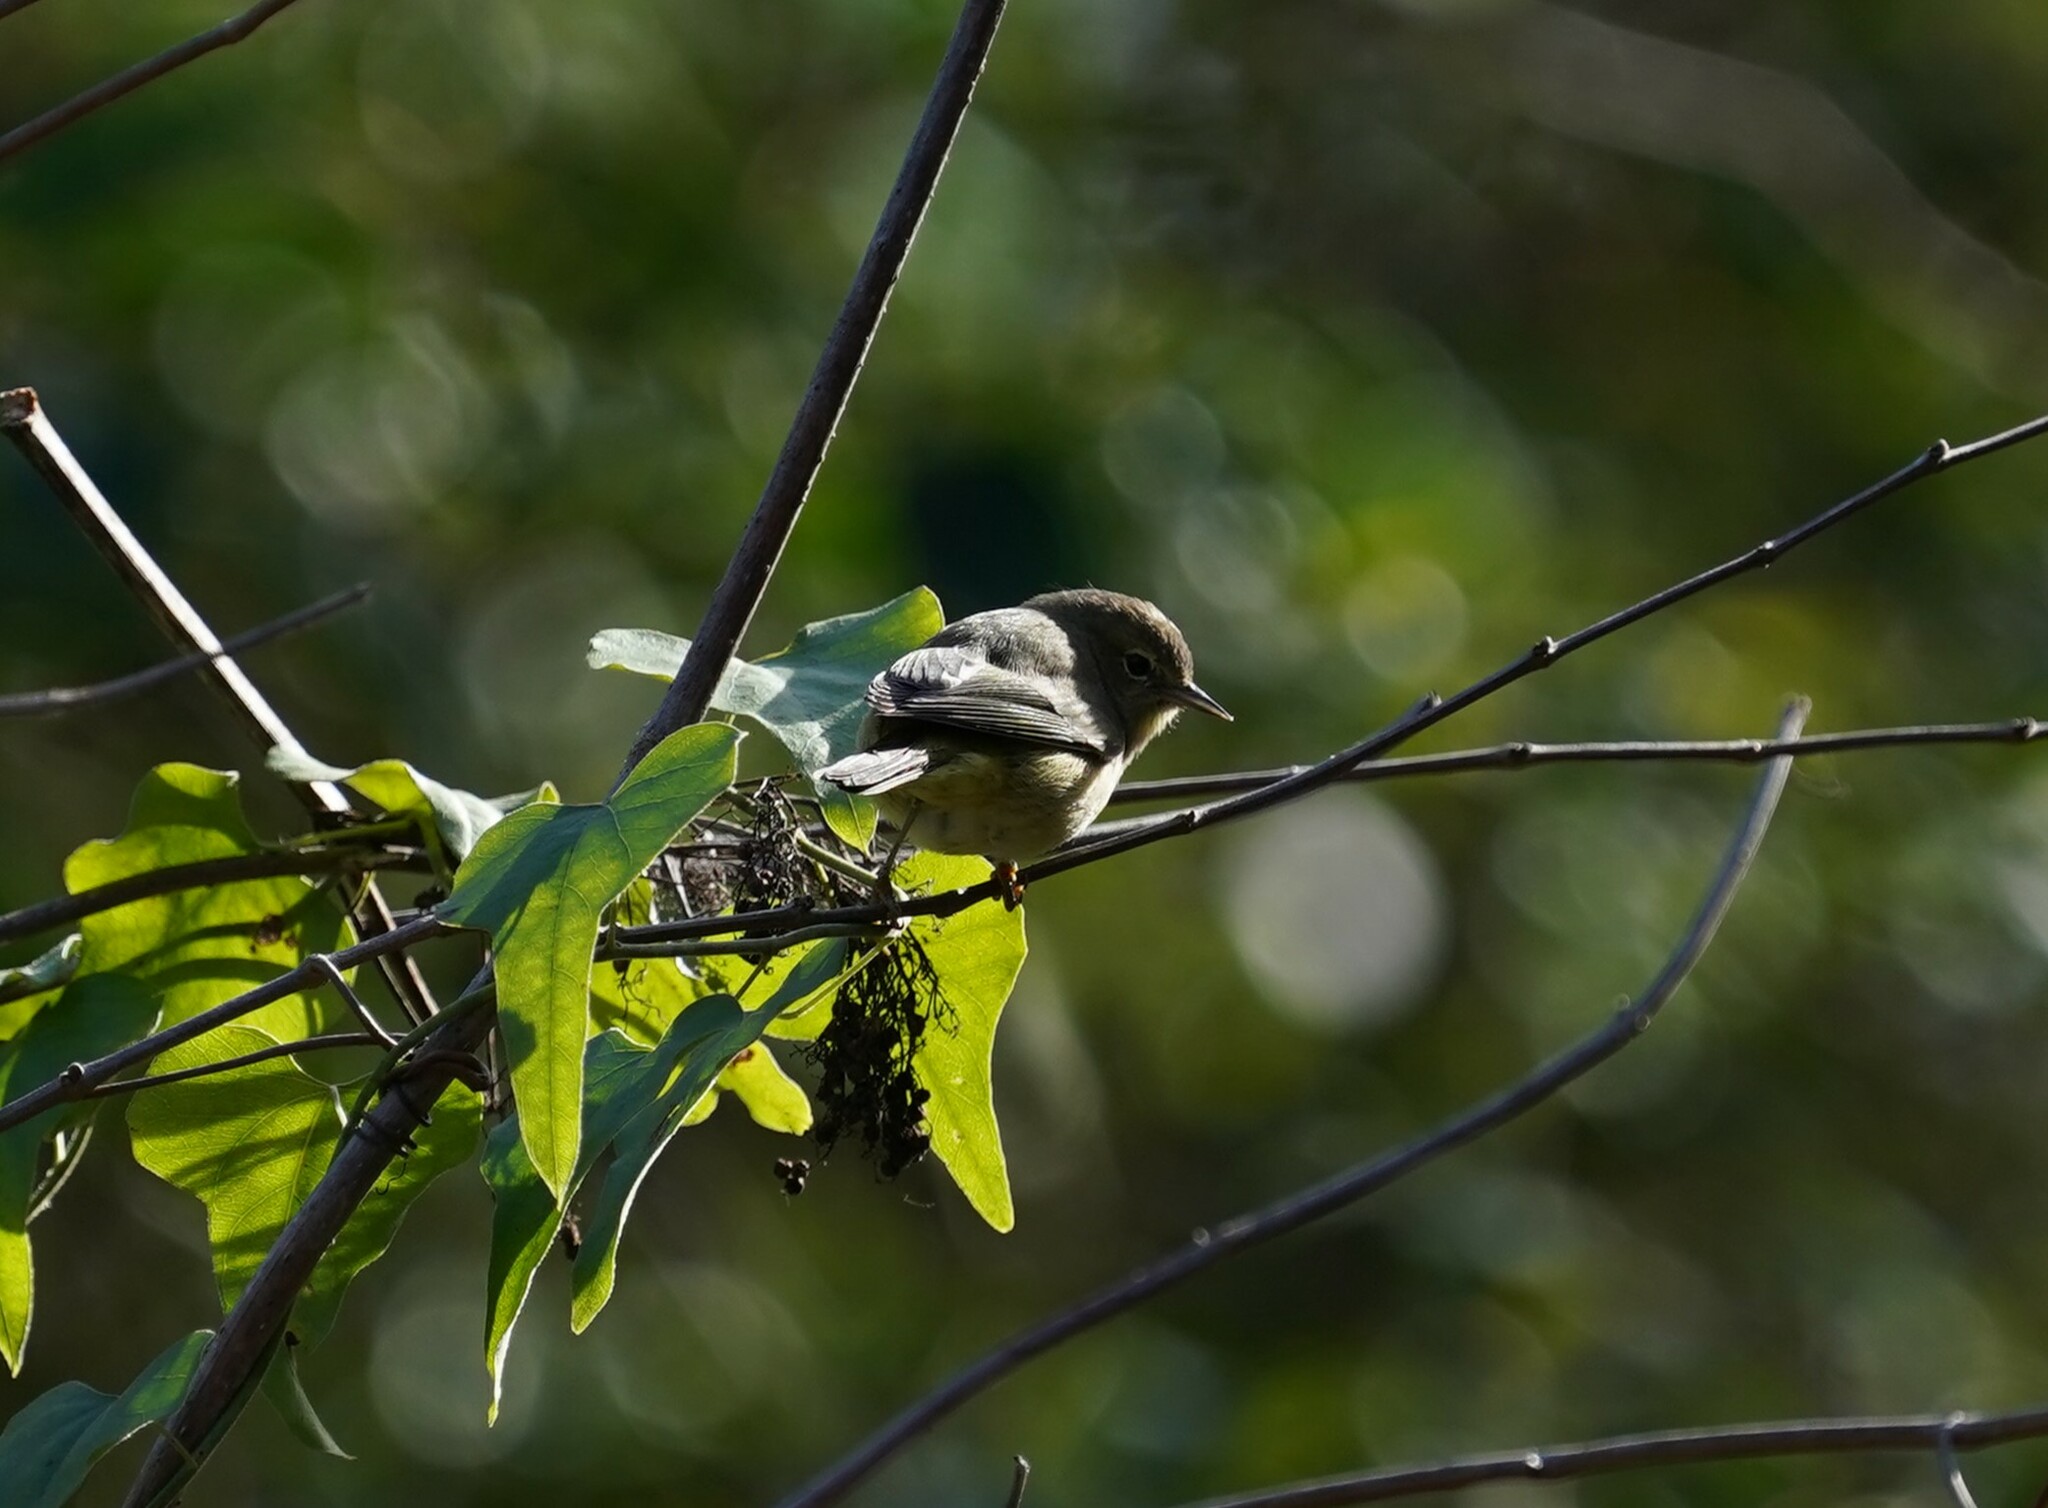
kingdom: Animalia
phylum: Chordata
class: Aves
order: Passeriformes
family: Parulidae
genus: Leiothlypis
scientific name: Leiothlypis celata
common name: Orange-crowned warbler
